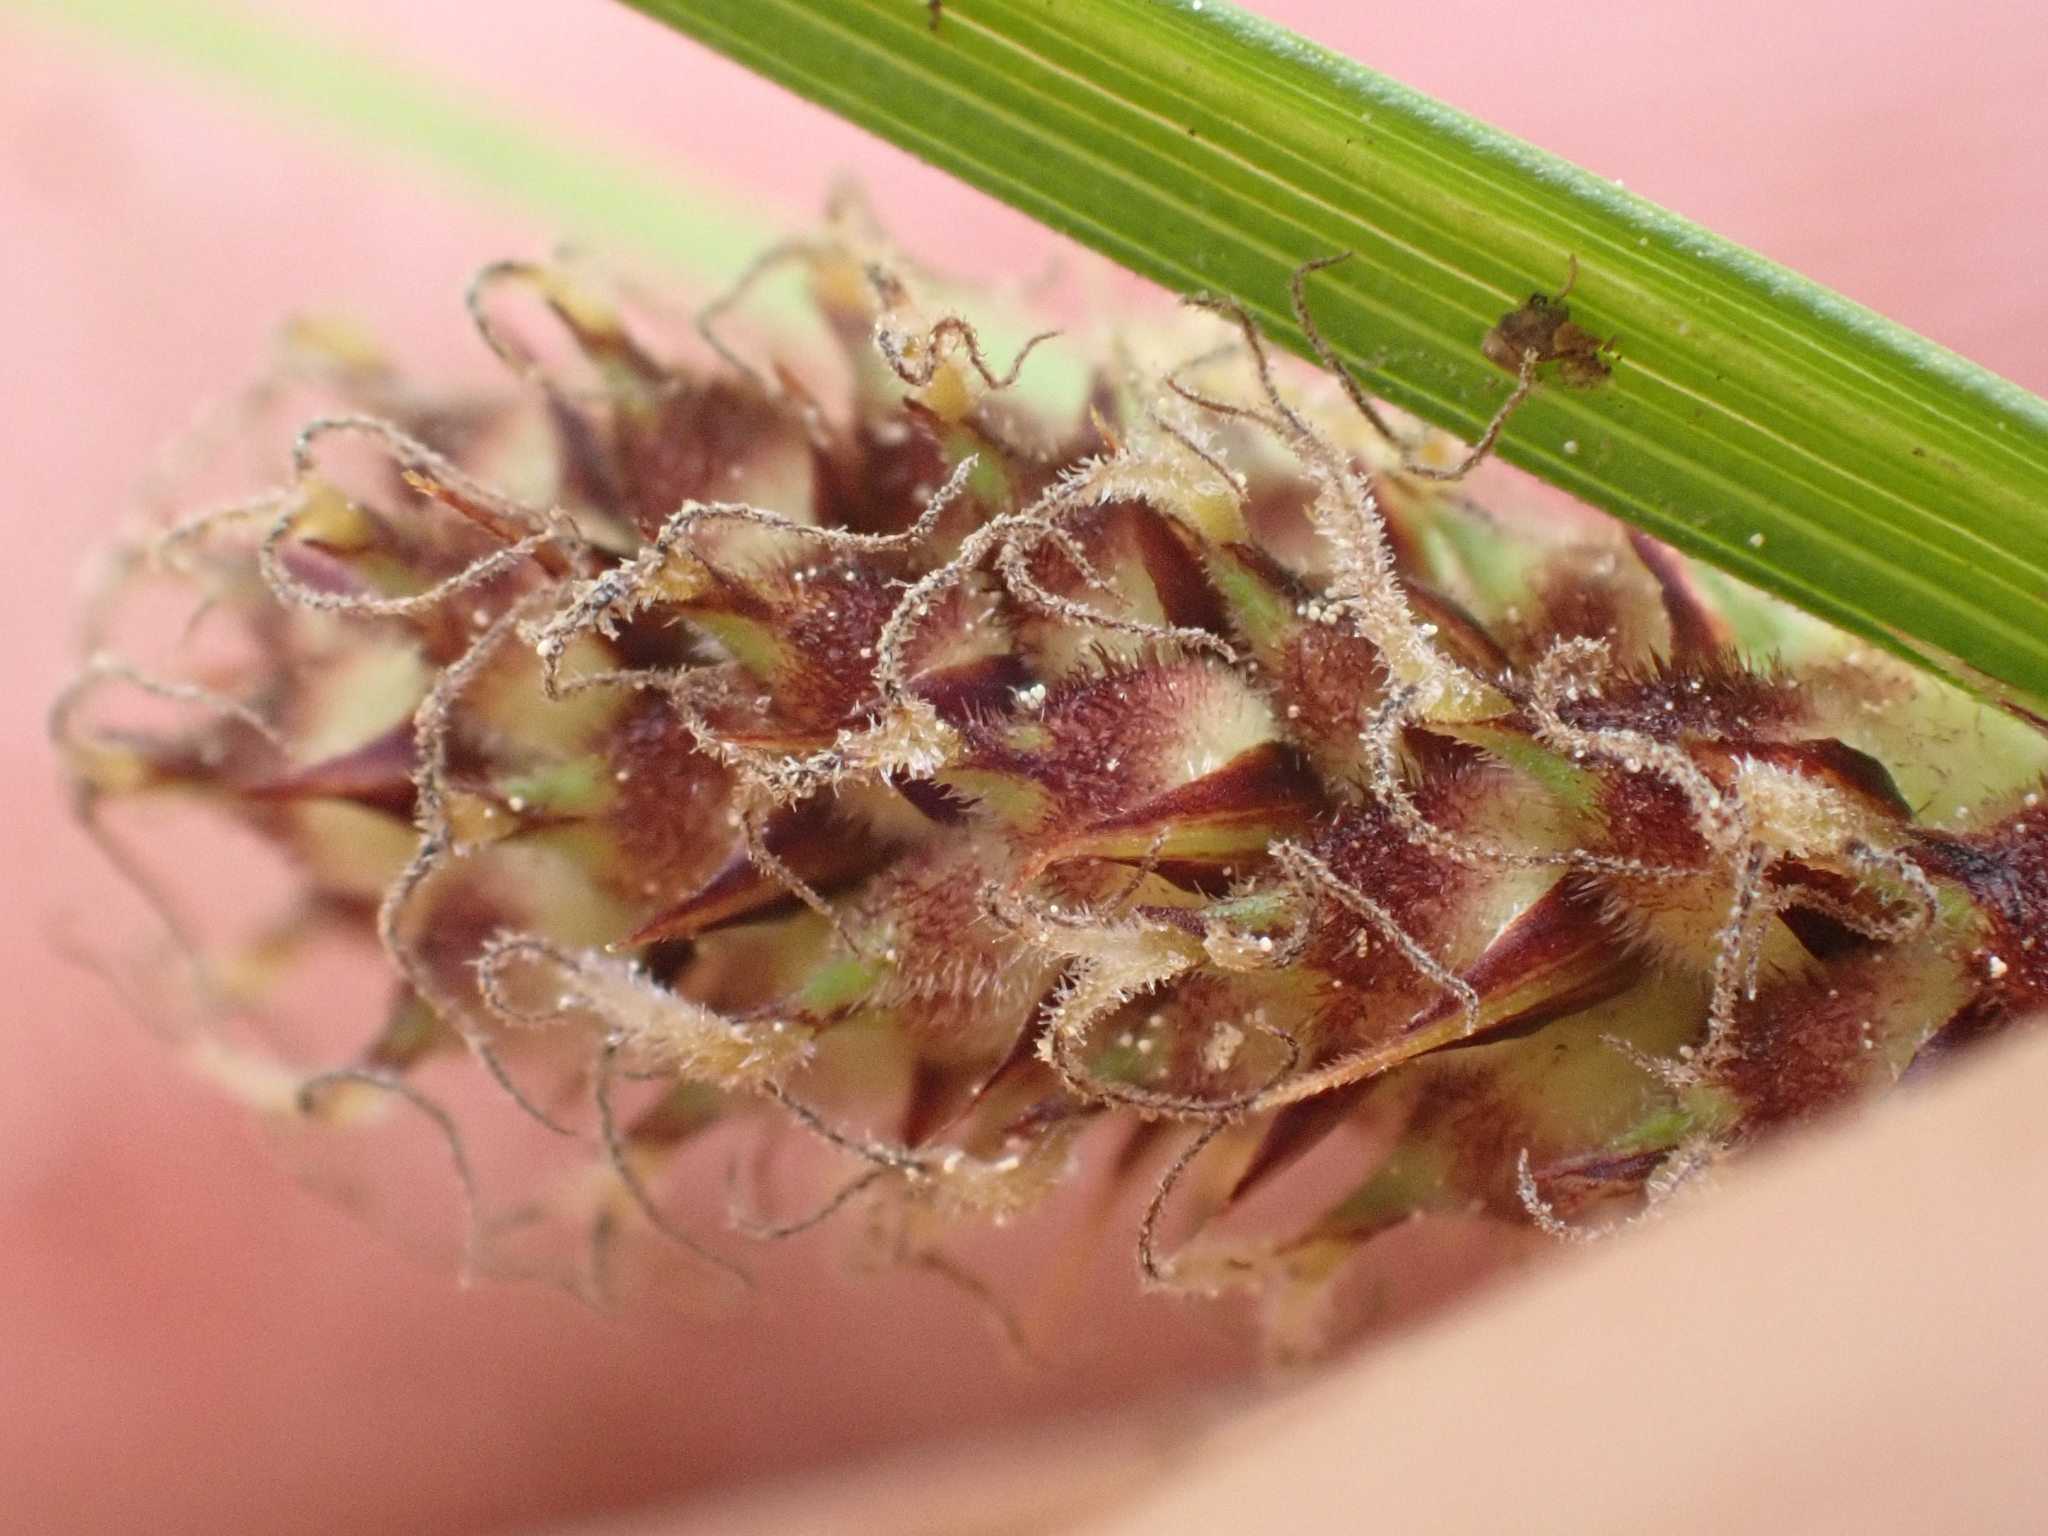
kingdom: Plantae
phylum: Tracheophyta
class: Liliopsida
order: Poales
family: Cyperaceae
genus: Carex
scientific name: Carex lasiocarpa
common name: Slender sedge
